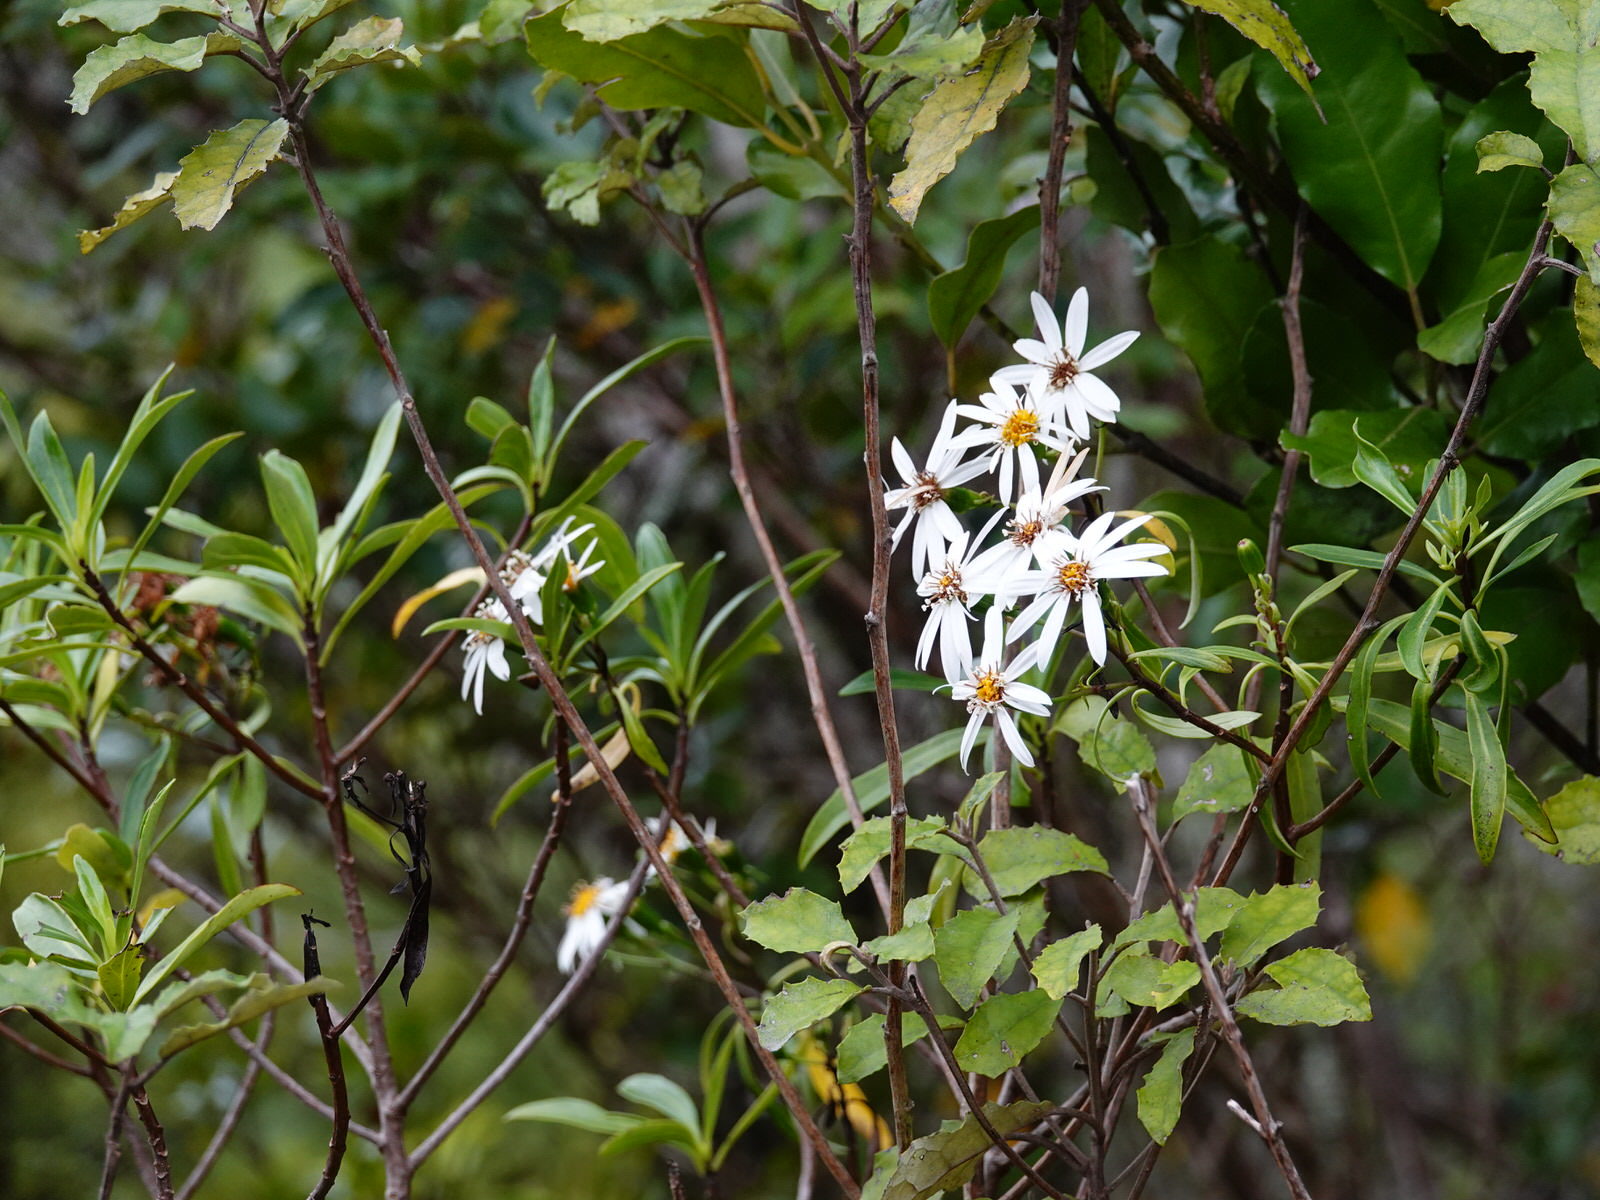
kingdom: Plantae
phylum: Tracheophyta
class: Magnoliopsida
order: Asterales
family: Asteraceae
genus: Brachyglottis
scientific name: Brachyglottis kirkii
